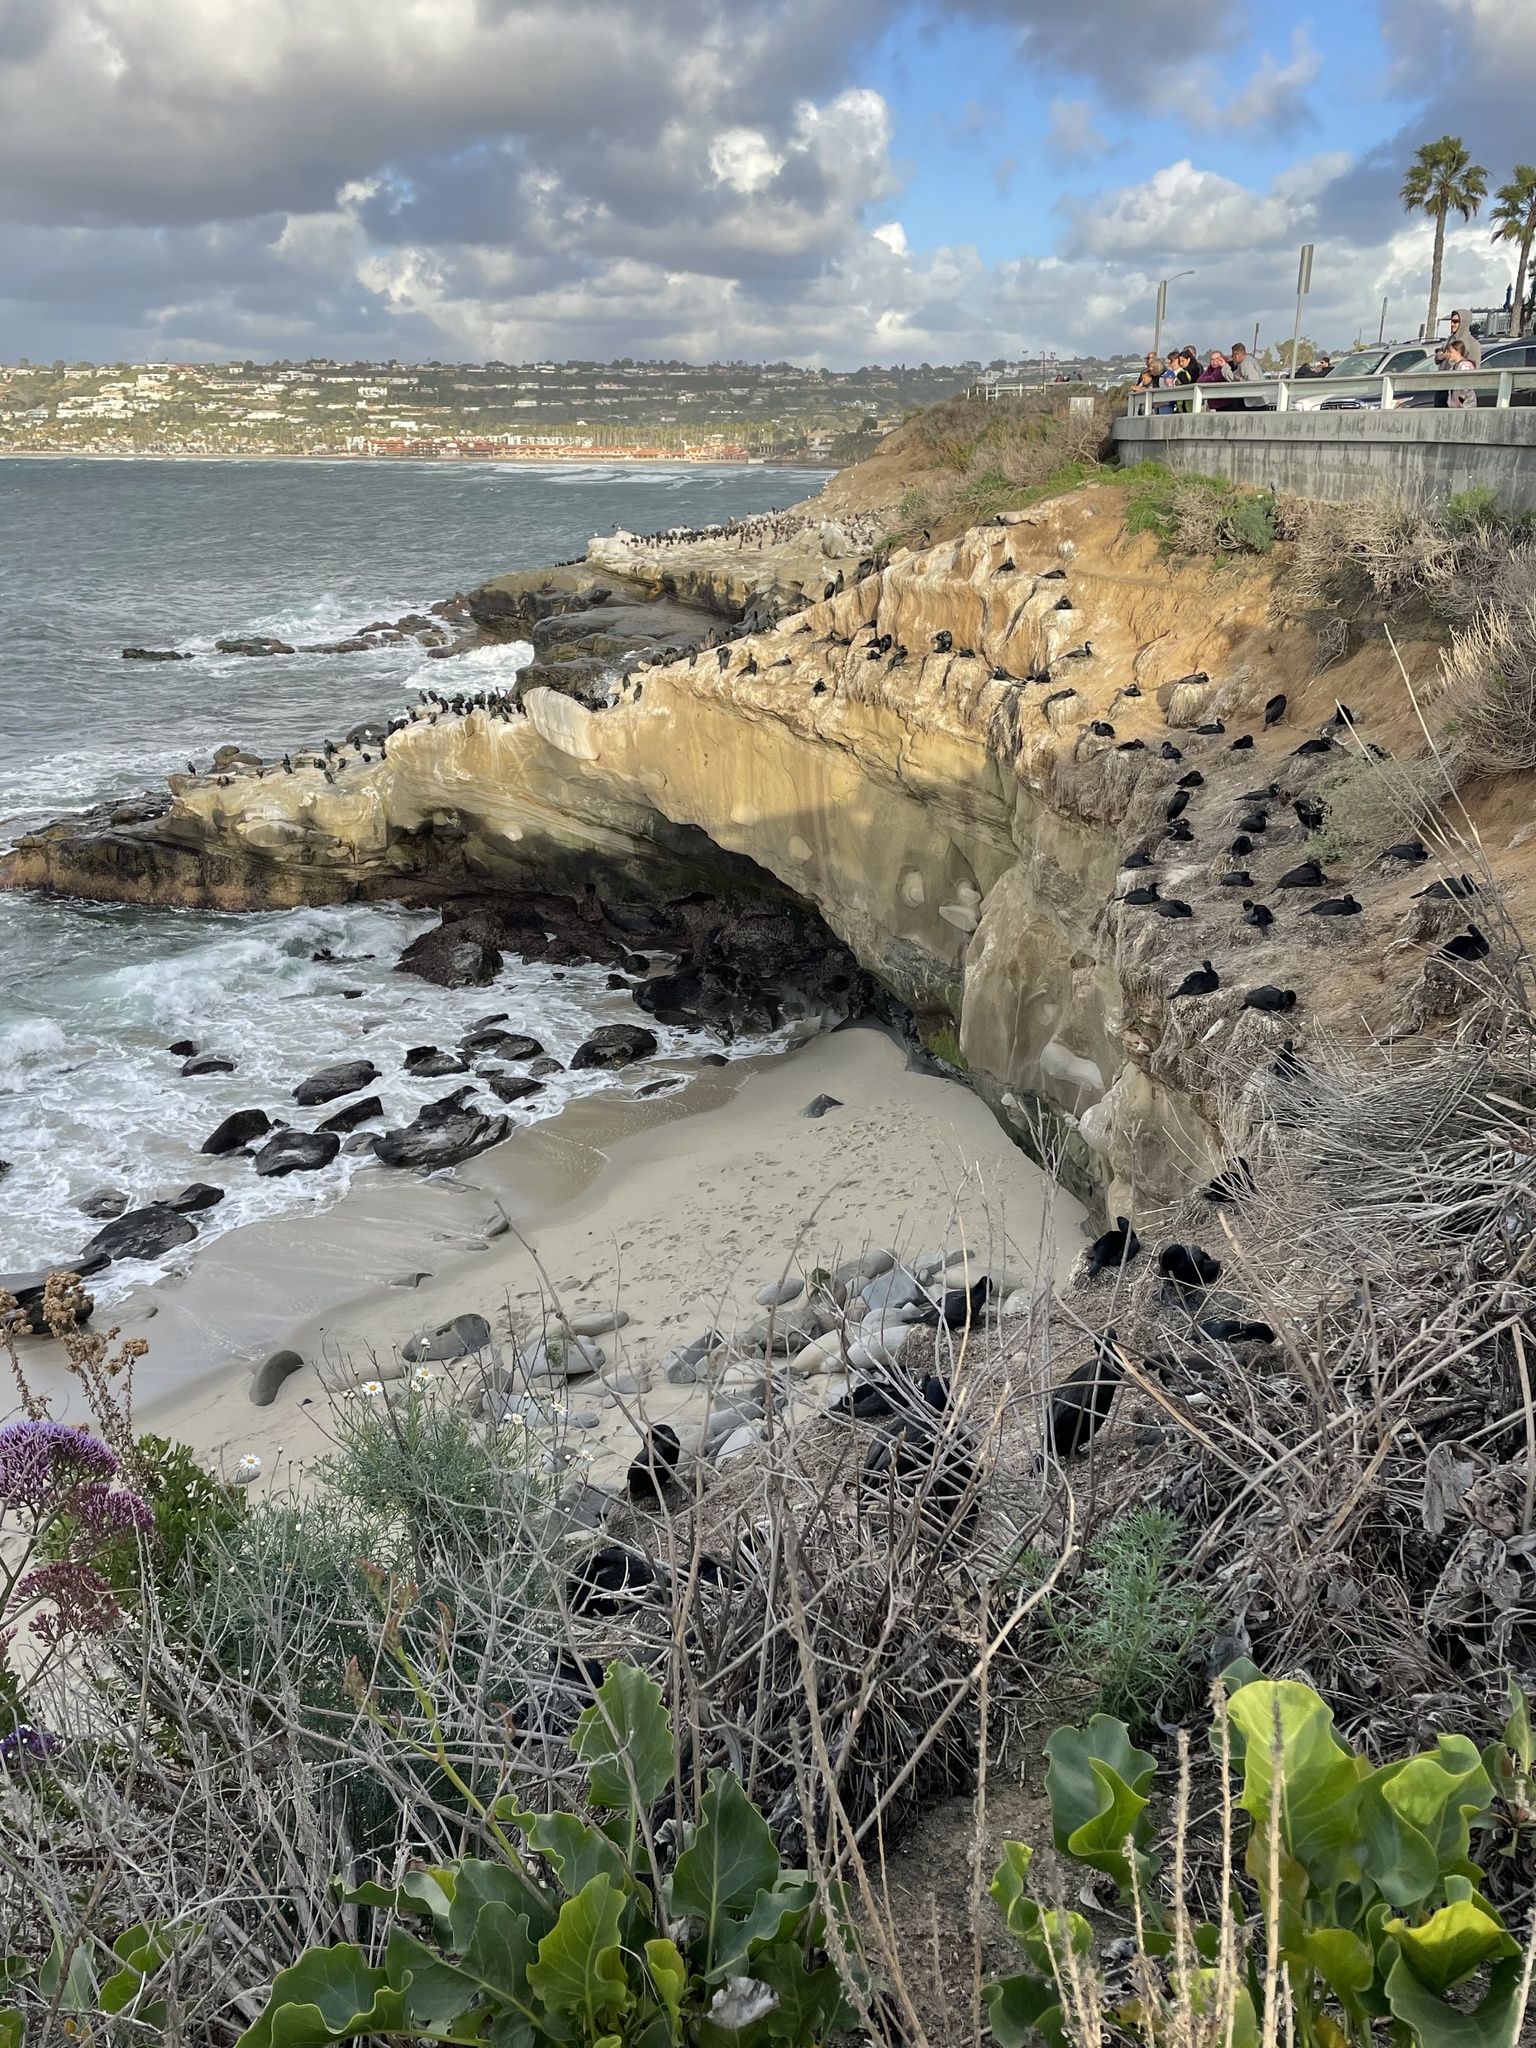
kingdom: Animalia
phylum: Chordata
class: Aves
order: Suliformes
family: Phalacrocoracidae
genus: Urile
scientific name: Urile penicillatus
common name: Brandt's cormorant
